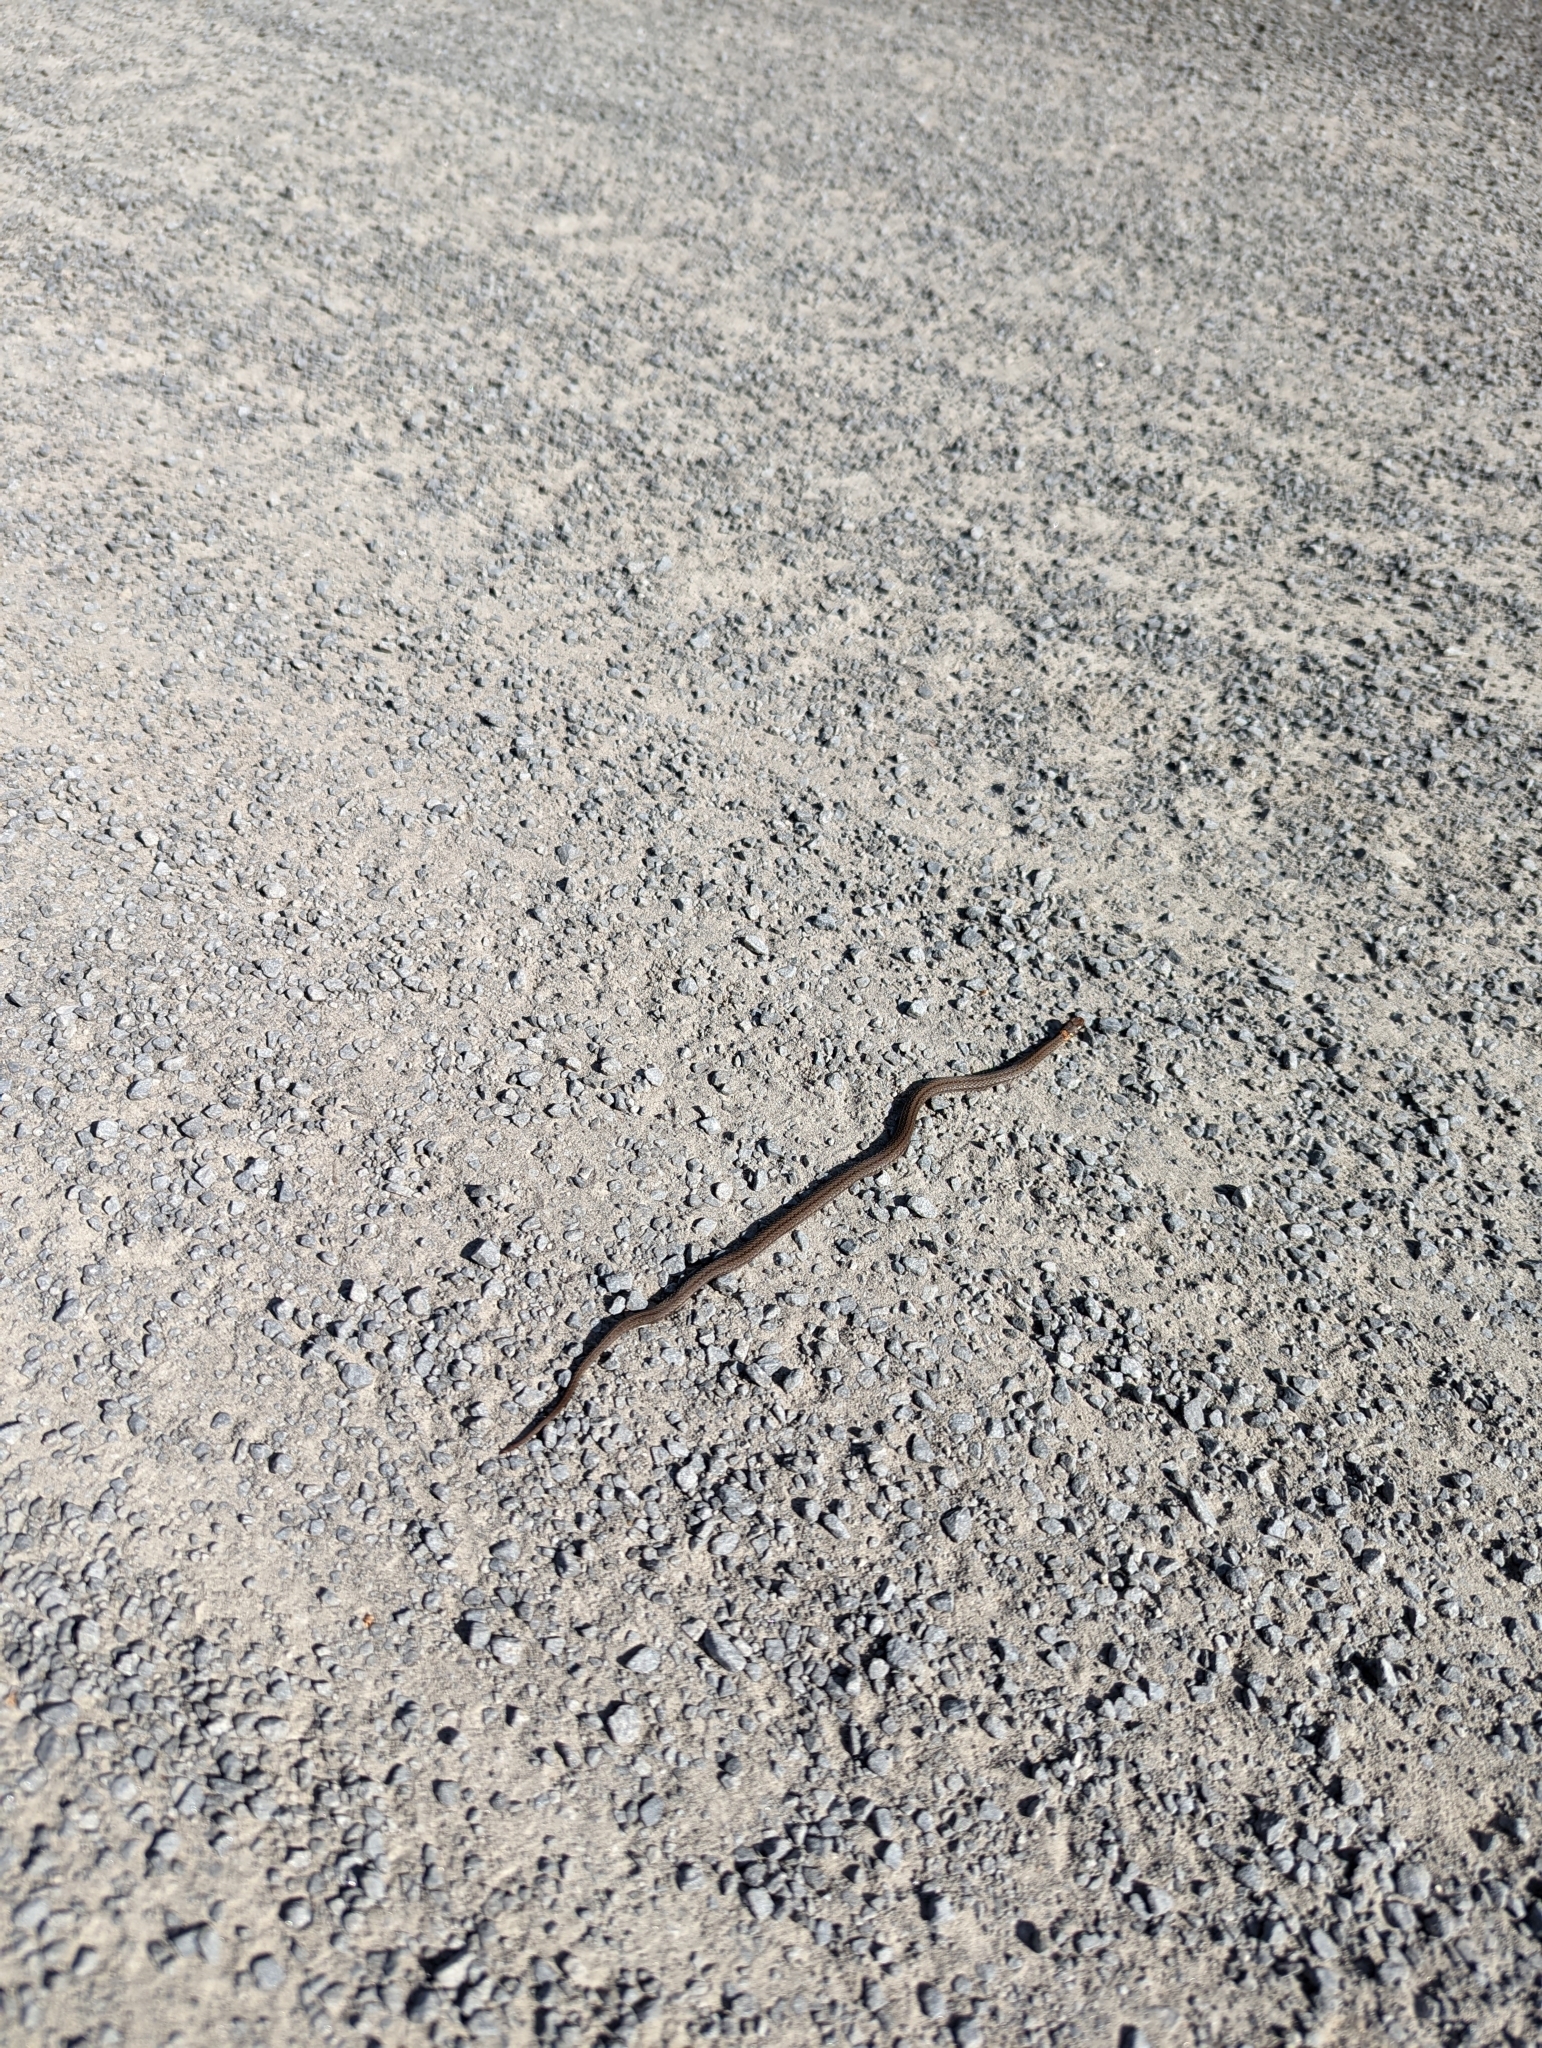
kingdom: Animalia
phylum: Chordata
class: Squamata
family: Colubridae
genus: Storeria
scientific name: Storeria occipitomaculata
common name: Redbelly snake
